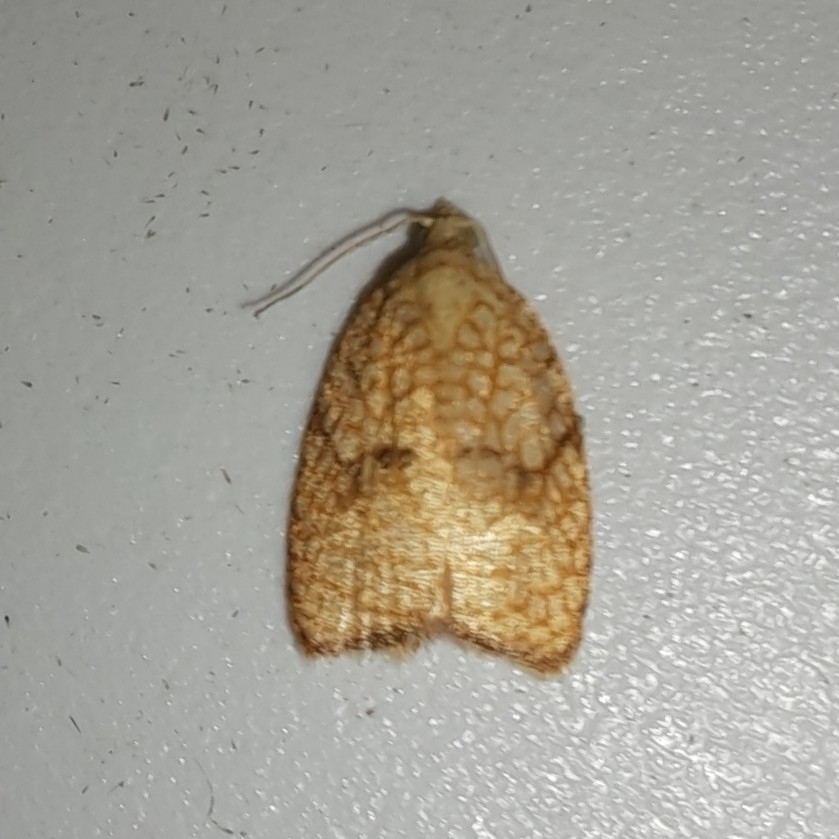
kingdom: Animalia
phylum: Arthropoda
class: Insecta
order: Lepidoptera
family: Tortricidae
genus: Acleris
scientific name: Acleris forsskaleana
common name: Maple button
